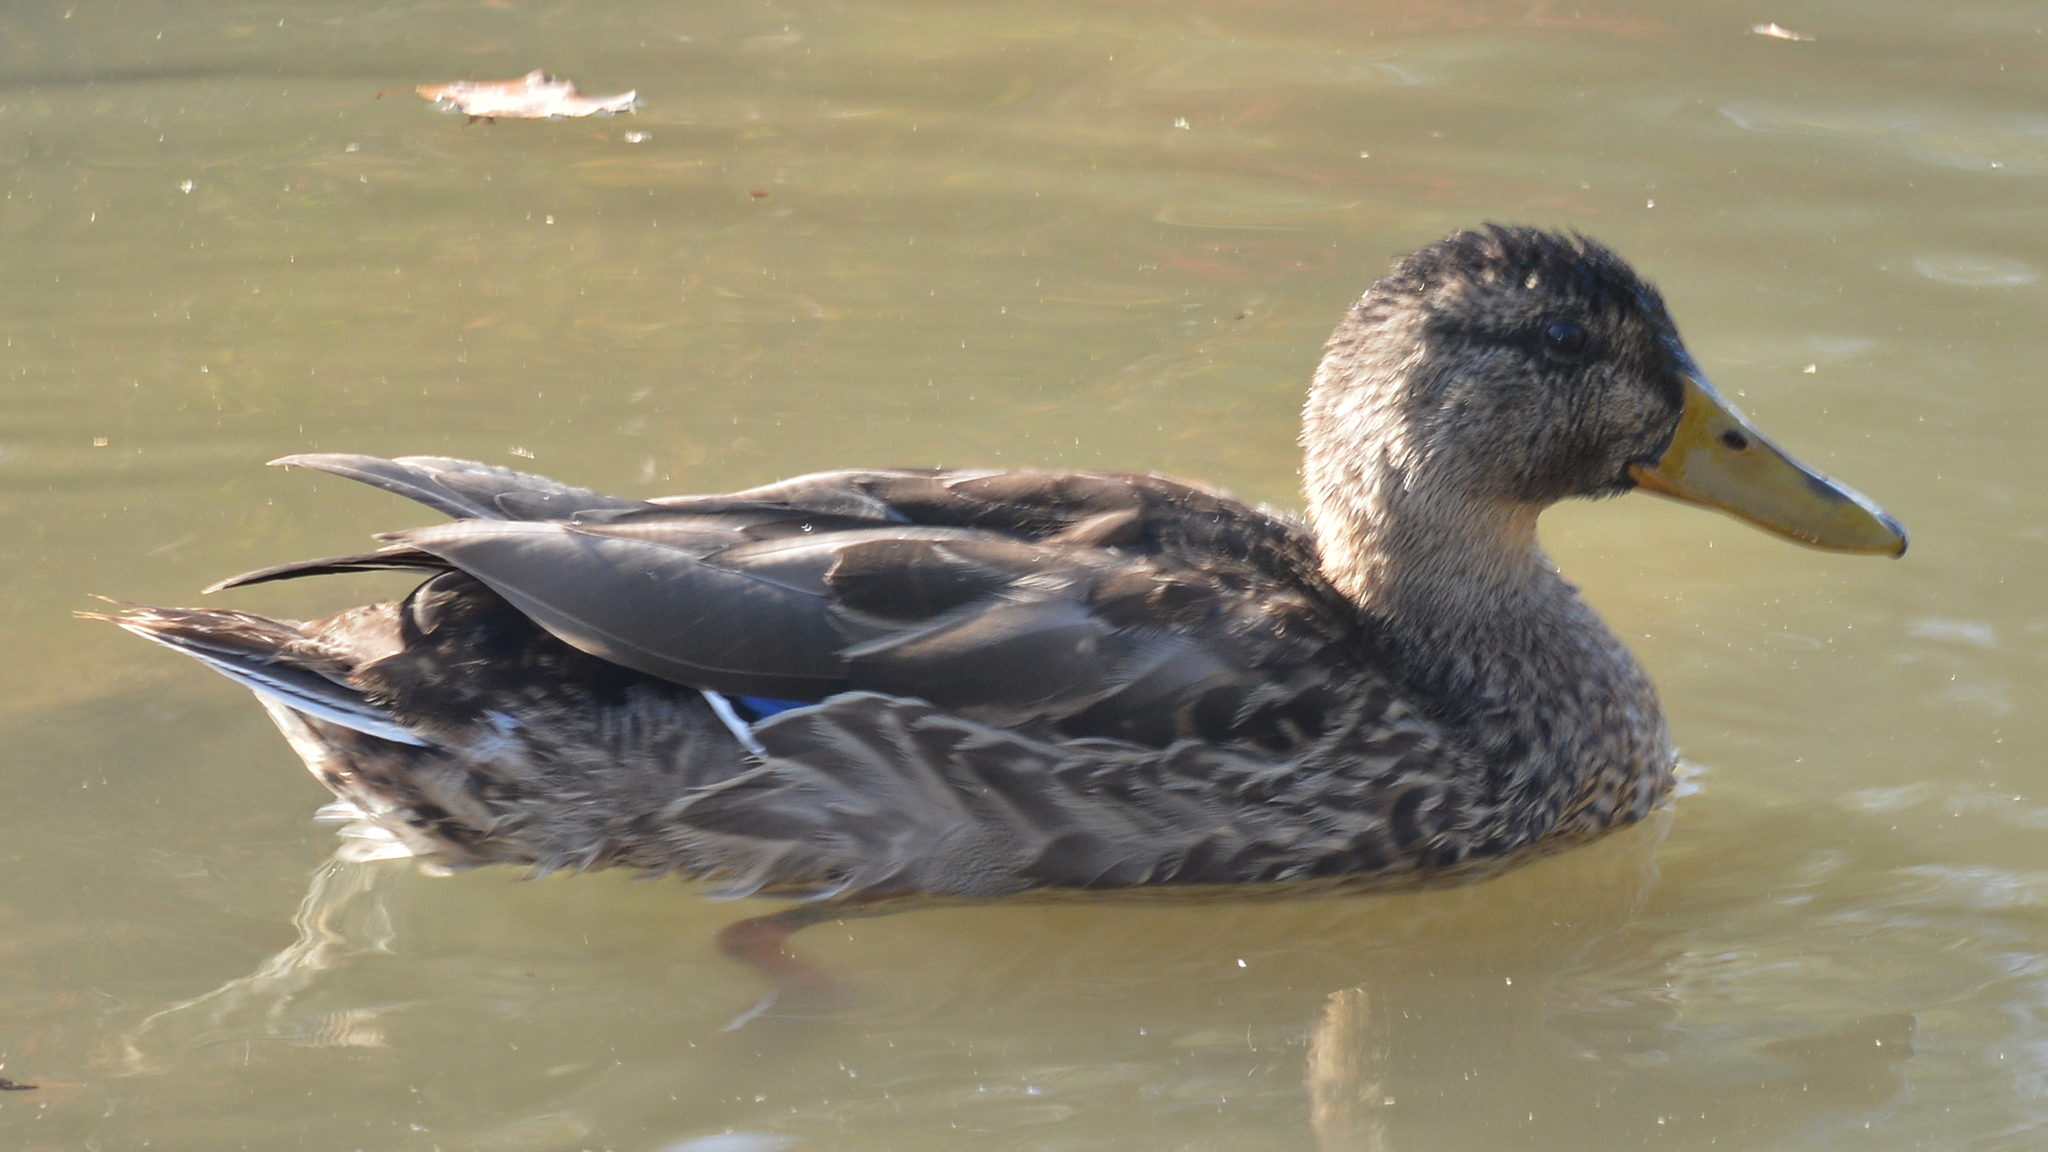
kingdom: Animalia
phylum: Chordata
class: Aves
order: Anseriformes
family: Anatidae
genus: Anas
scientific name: Anas platyrhynchos
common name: Mallard
